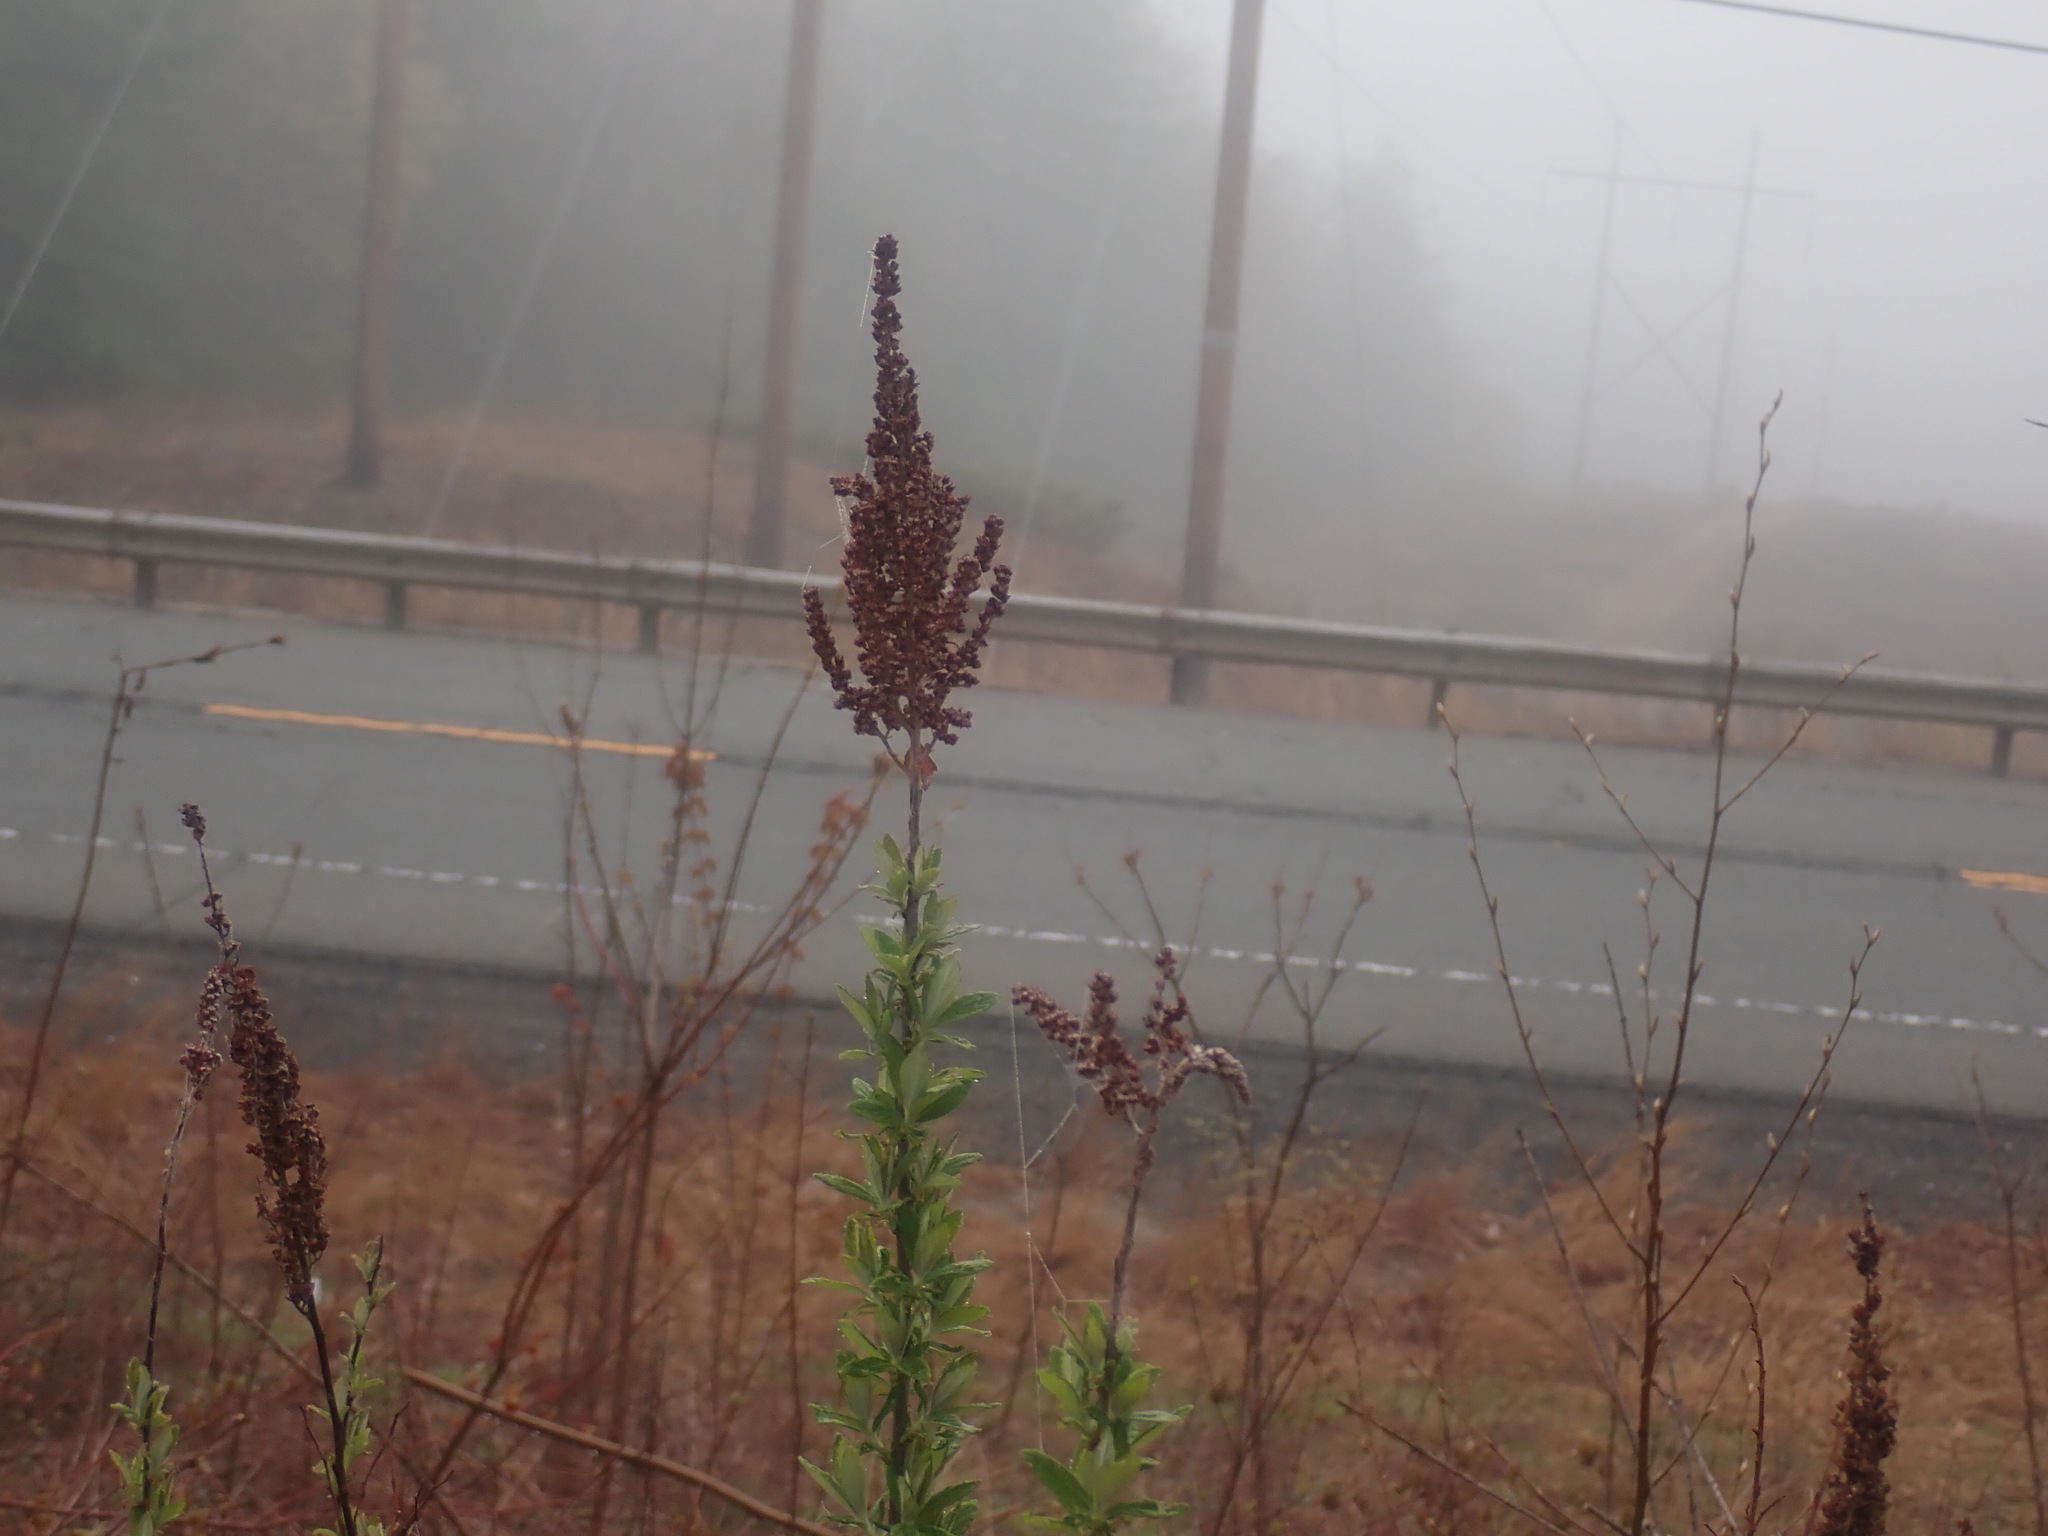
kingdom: Plantae
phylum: Tracheophyta
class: Magnoliopsida
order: Rosales
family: Rosaceae
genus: Spiraea
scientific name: Spiraea tomentosa
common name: Hardhack
